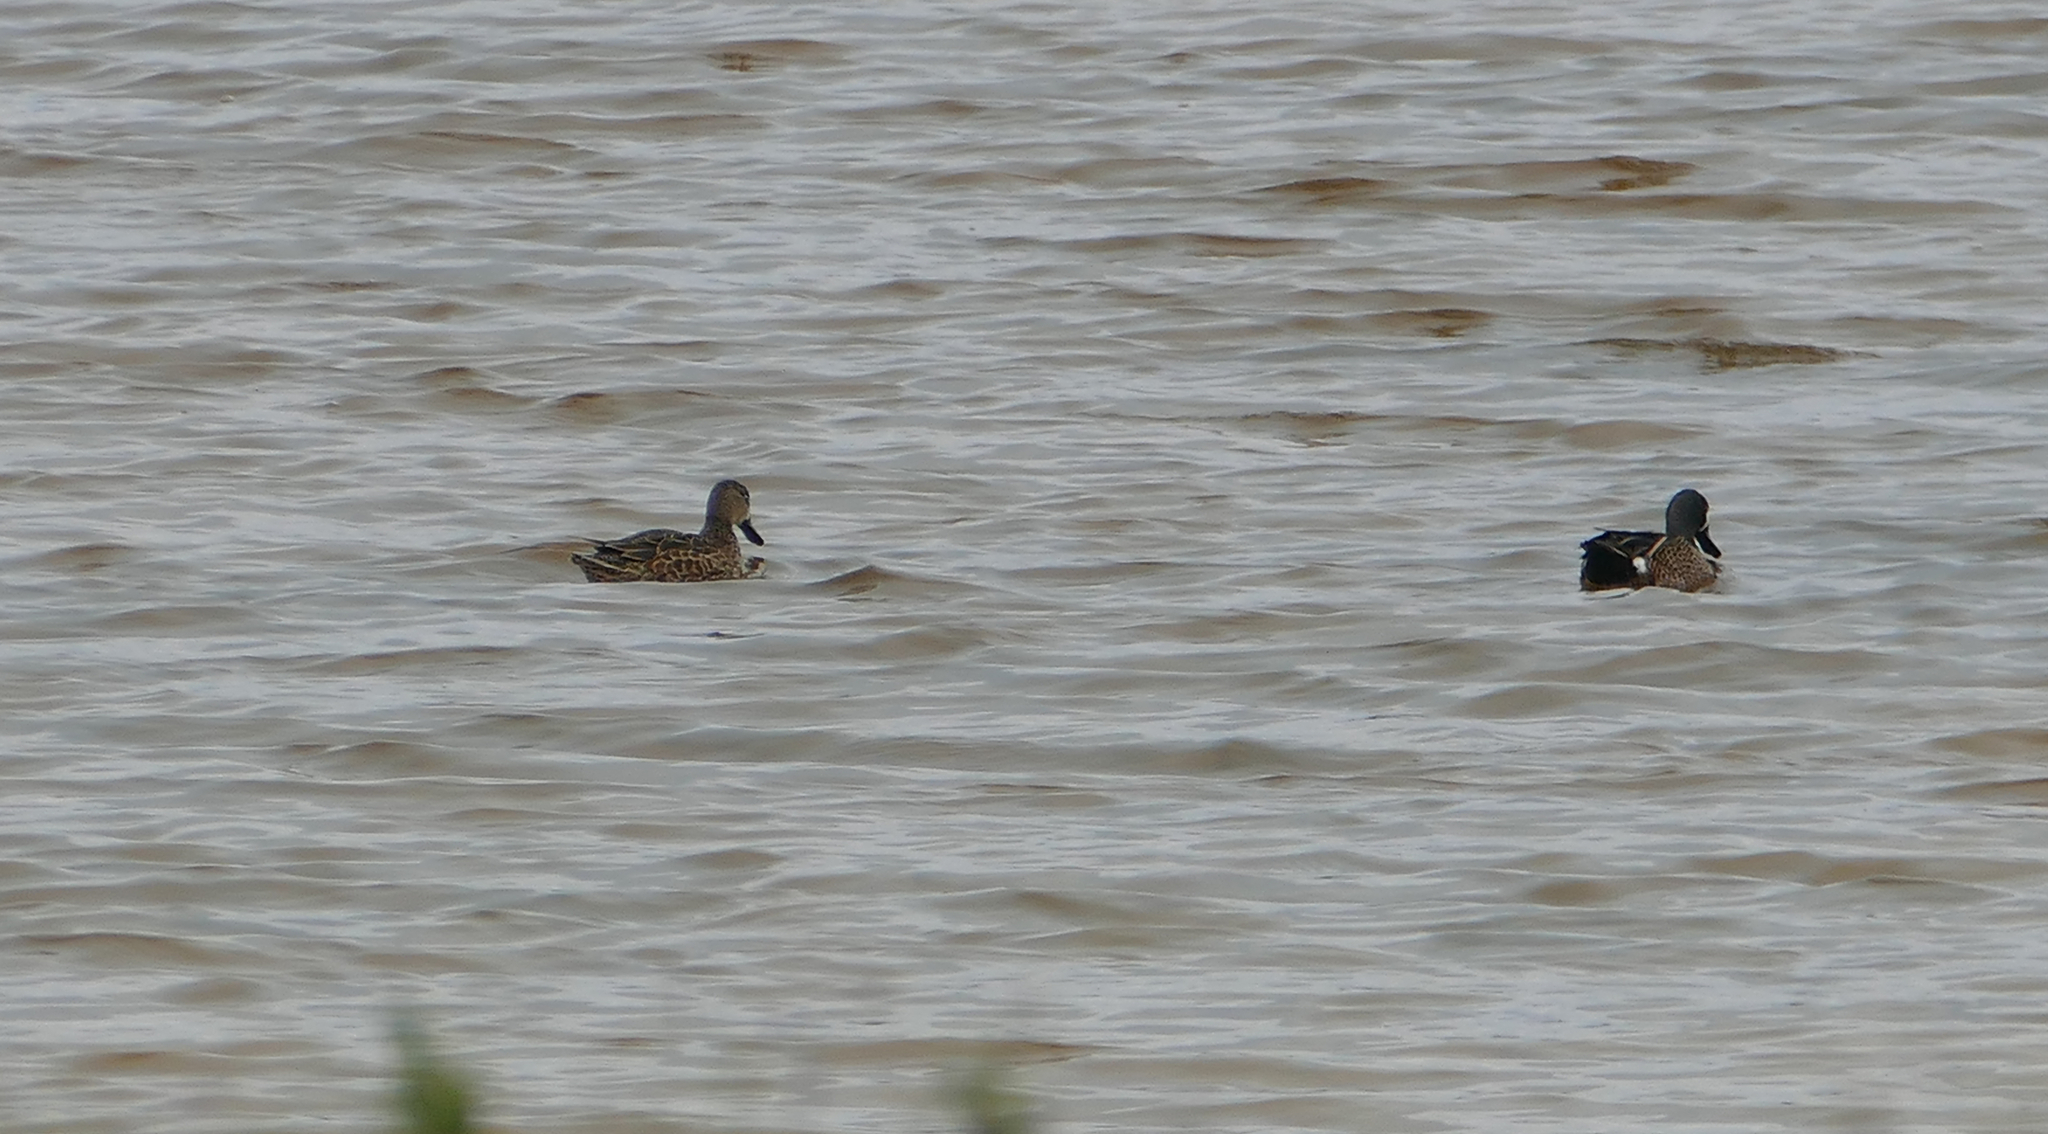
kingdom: Animalia
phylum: Chordata
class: Aves
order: Anseriformes
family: Anatidae
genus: Spatula
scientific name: Spatula discors
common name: Blue-winged teal
